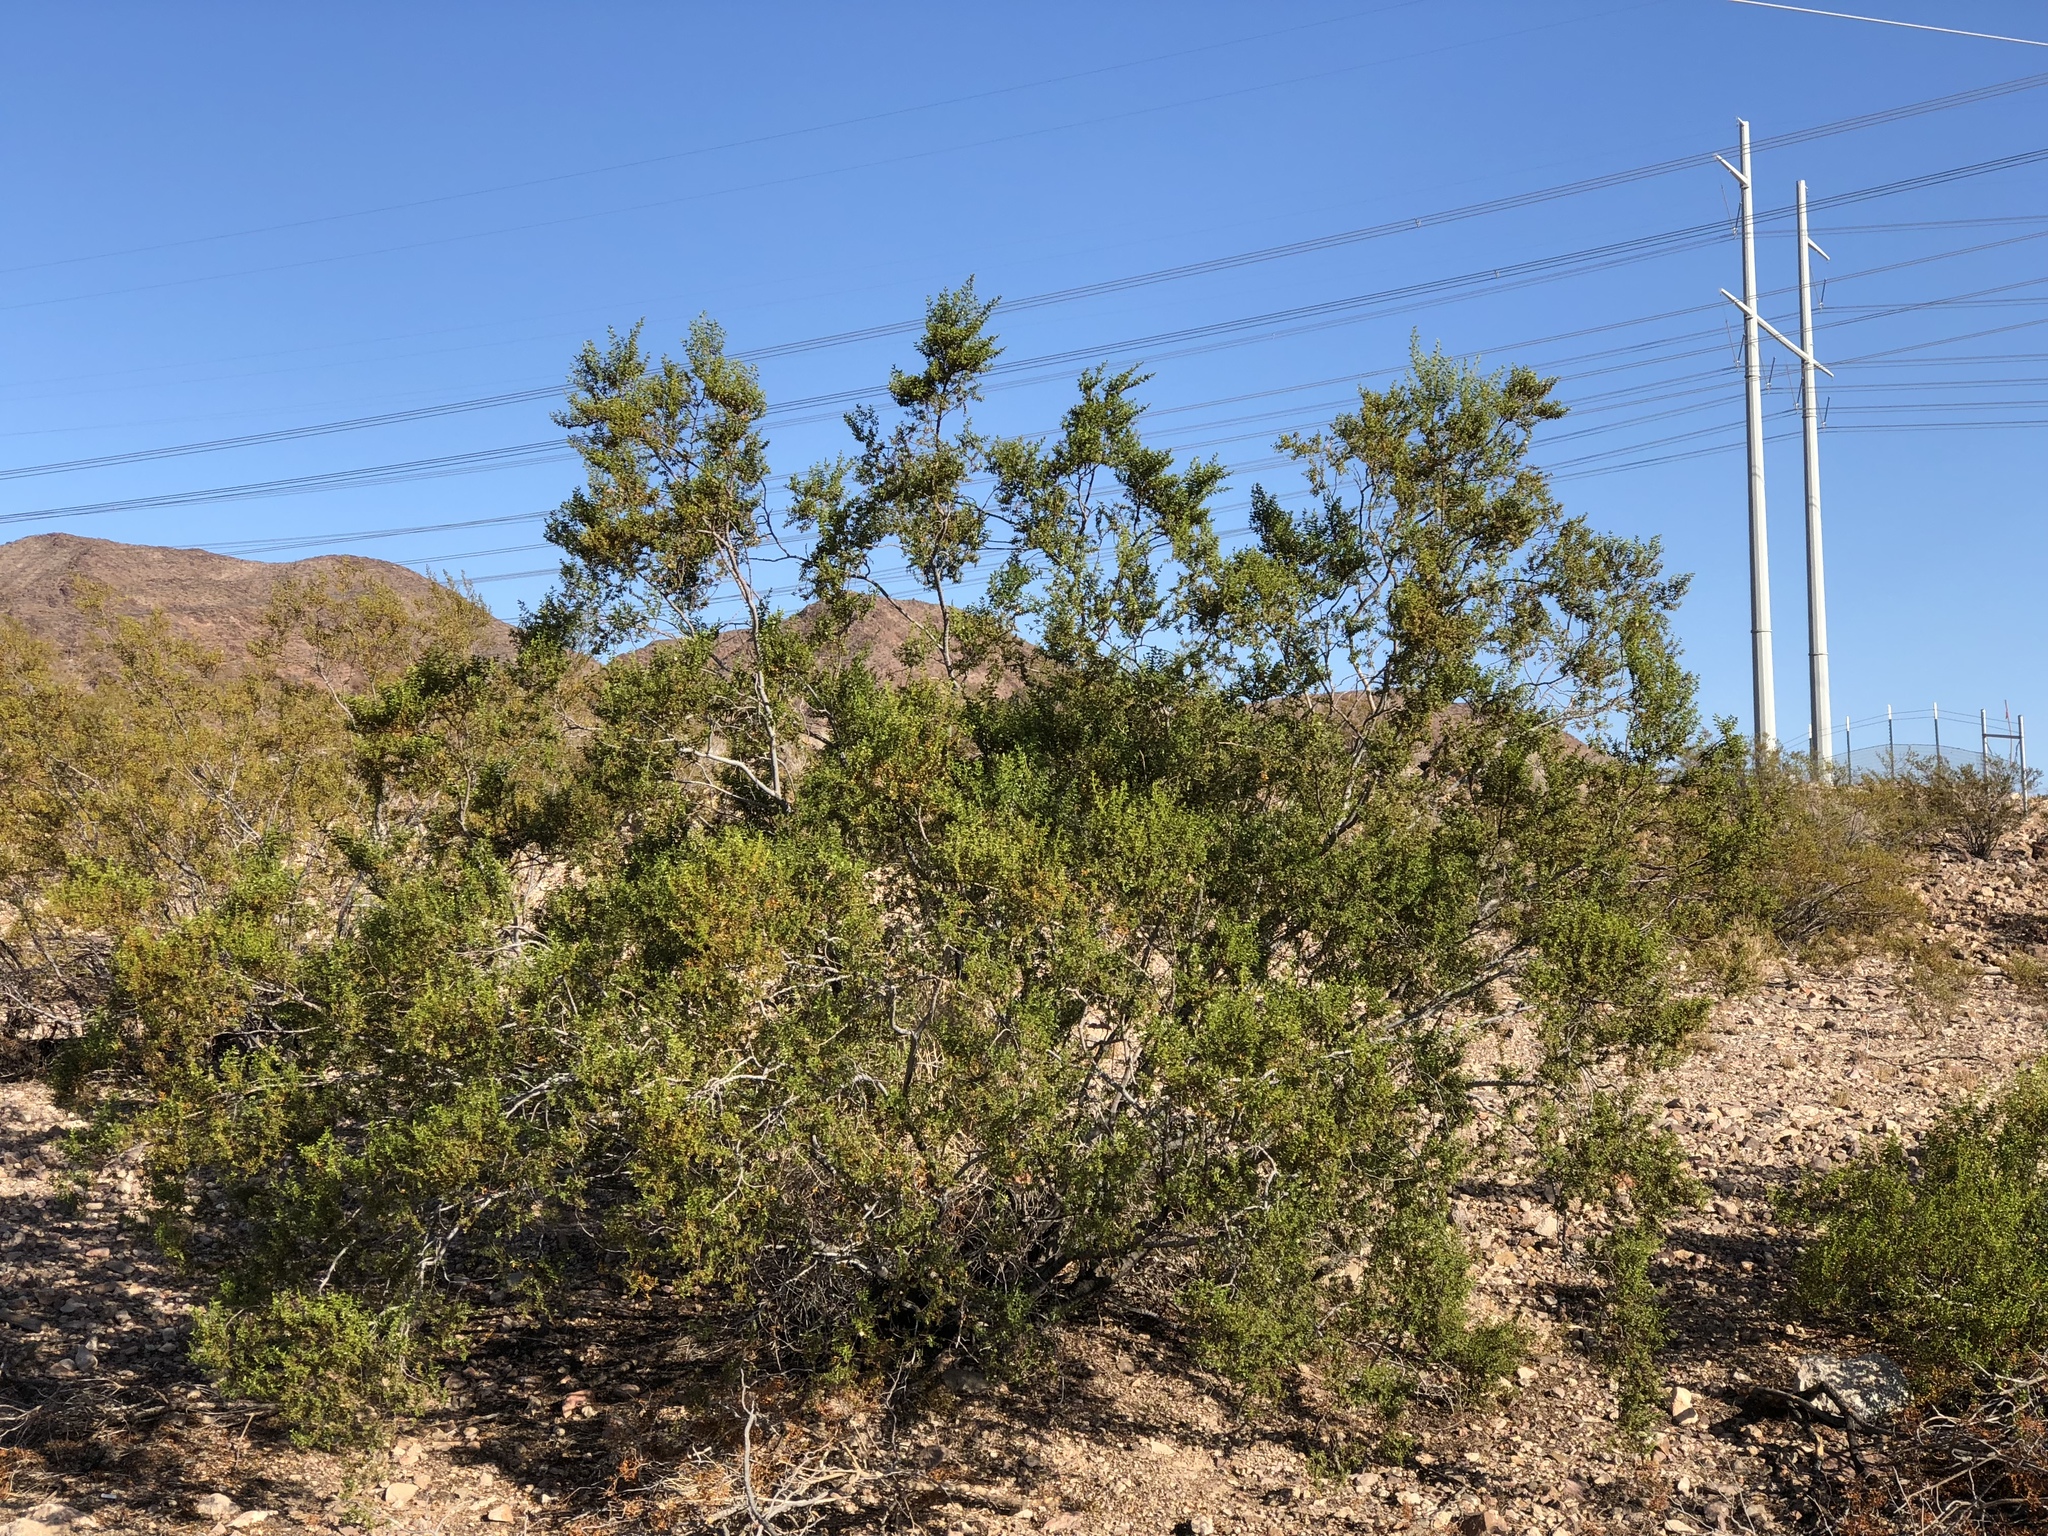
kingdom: Plantae
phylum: Tracheophyta
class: Magnoliopsida
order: Zygophyllales
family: Zygophyllaceae
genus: Larrea
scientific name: Larrea tridentata
